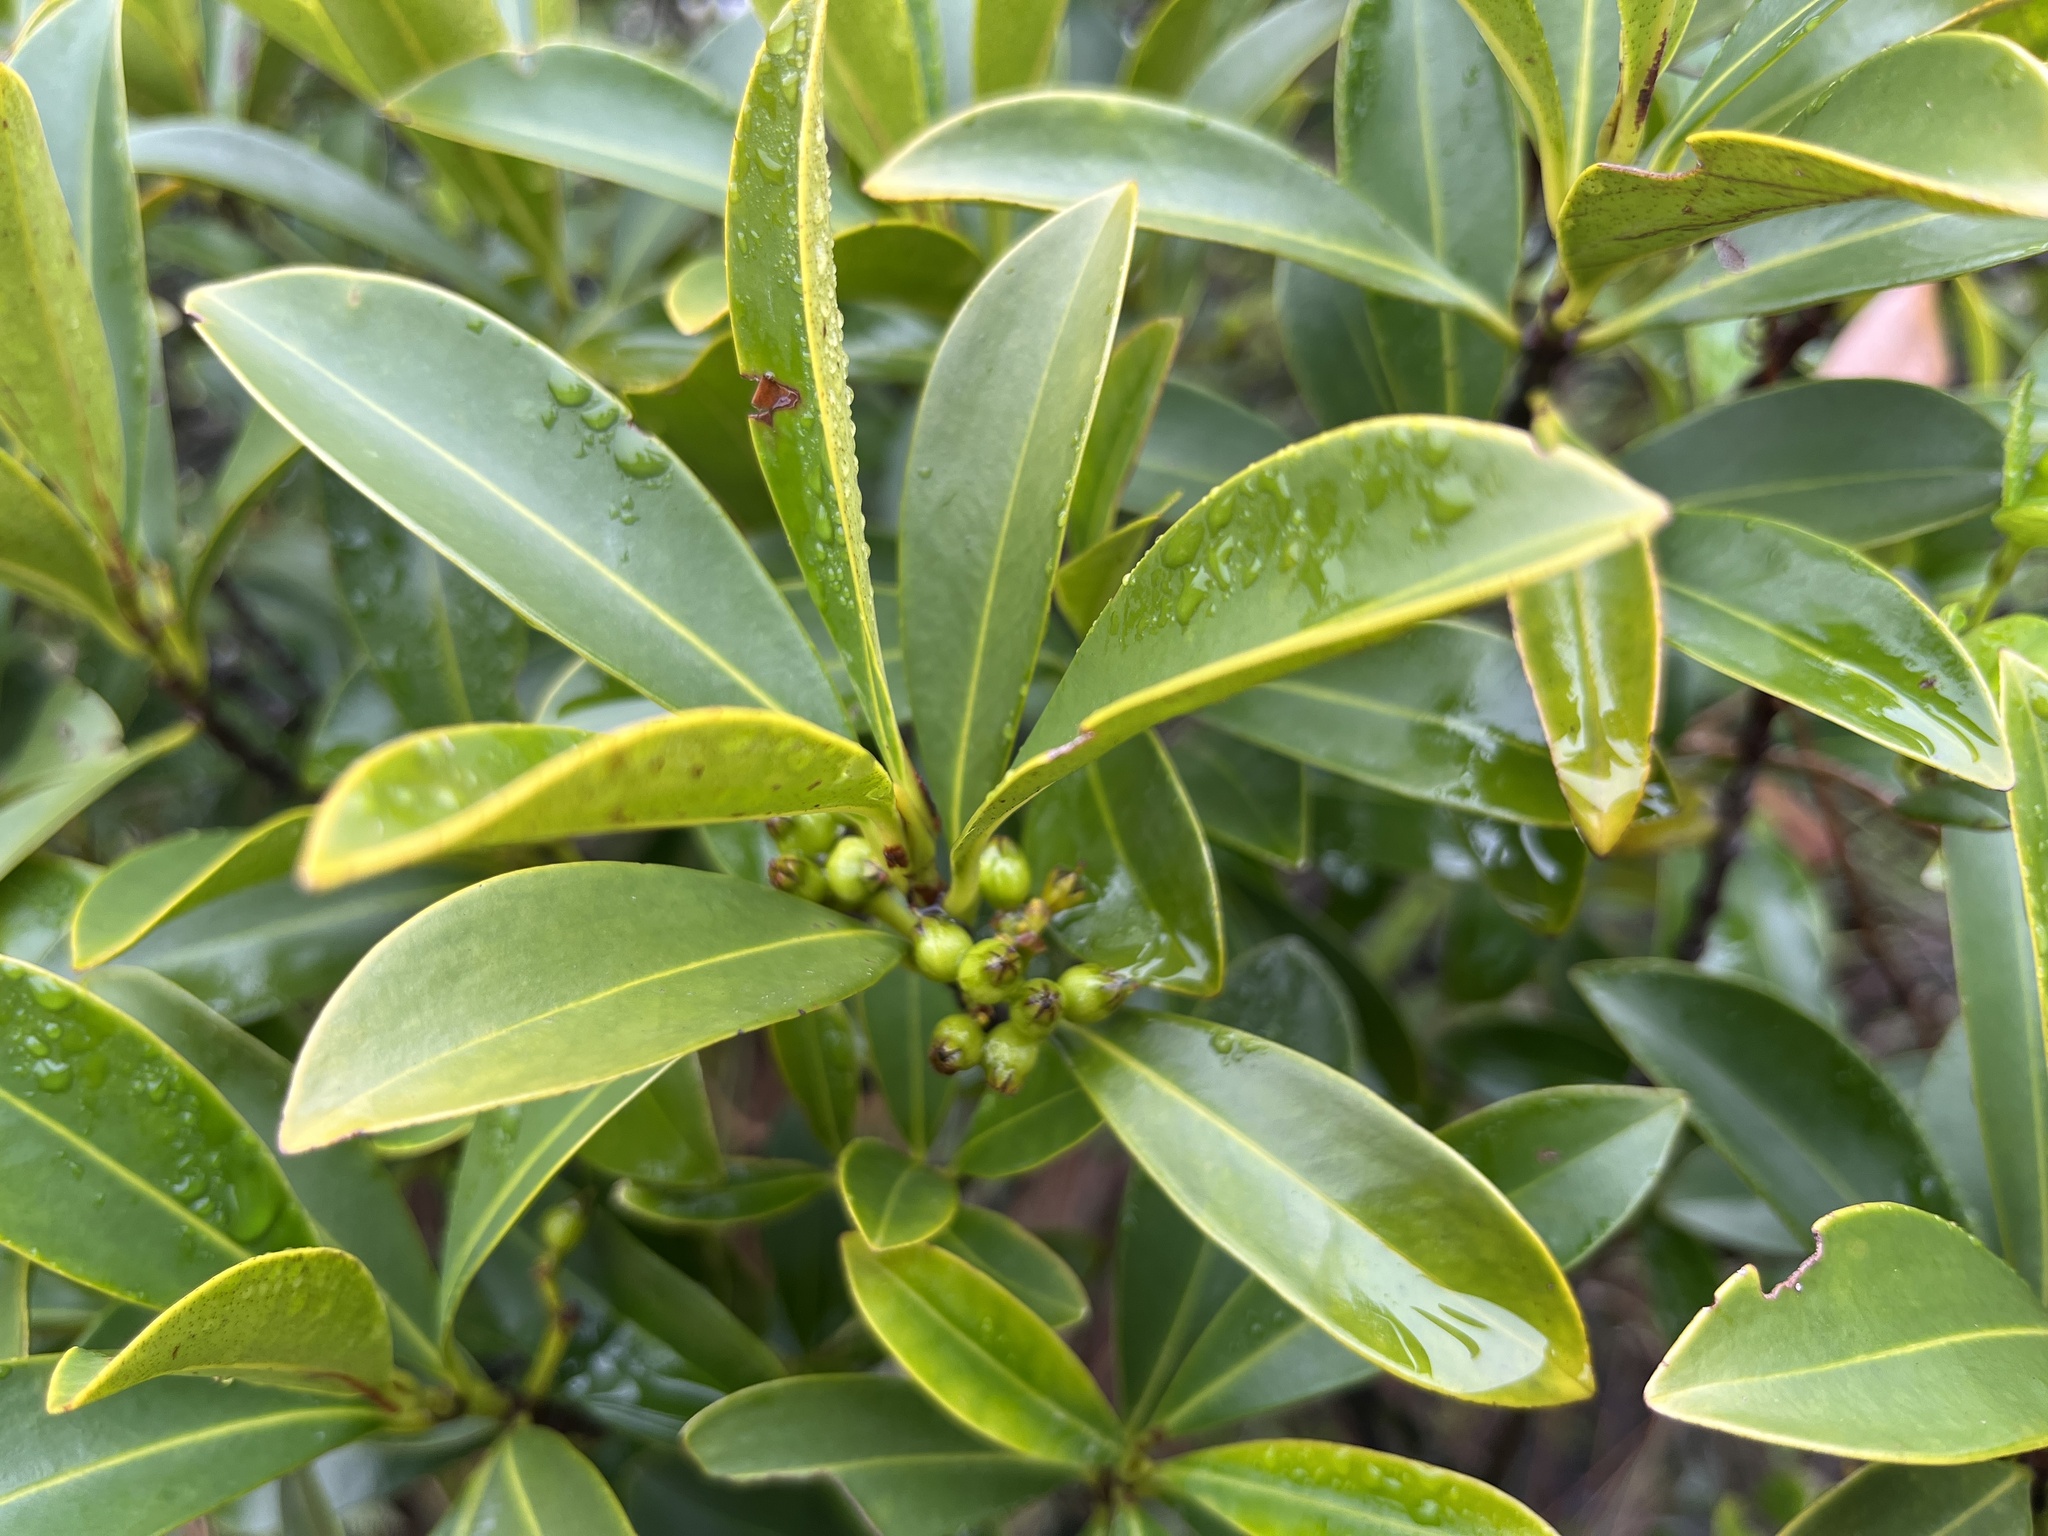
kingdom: Plantae
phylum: Tracheophyta
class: Magnoliopsida
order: Malpighiales
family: Rhizophoraceae
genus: Carallia
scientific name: Carallia brachiata
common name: Carallawood
